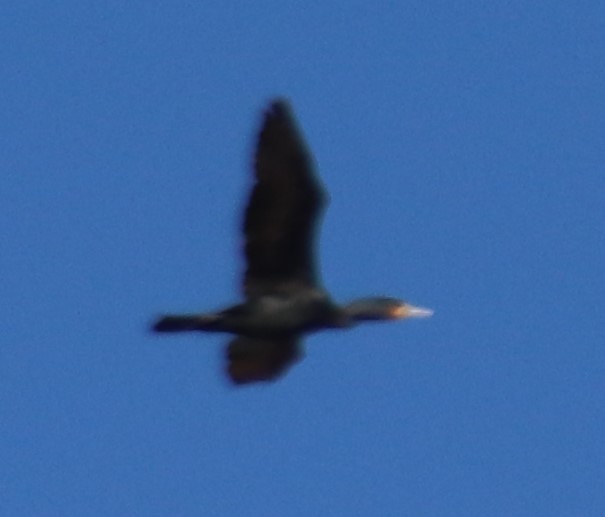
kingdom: Animalia
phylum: Chordata
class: Aves
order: Suliformes
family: Phalacrocoracidae
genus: Phalacrocorax
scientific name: Phalacrocorax auritus
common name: Double-crested cormorant
